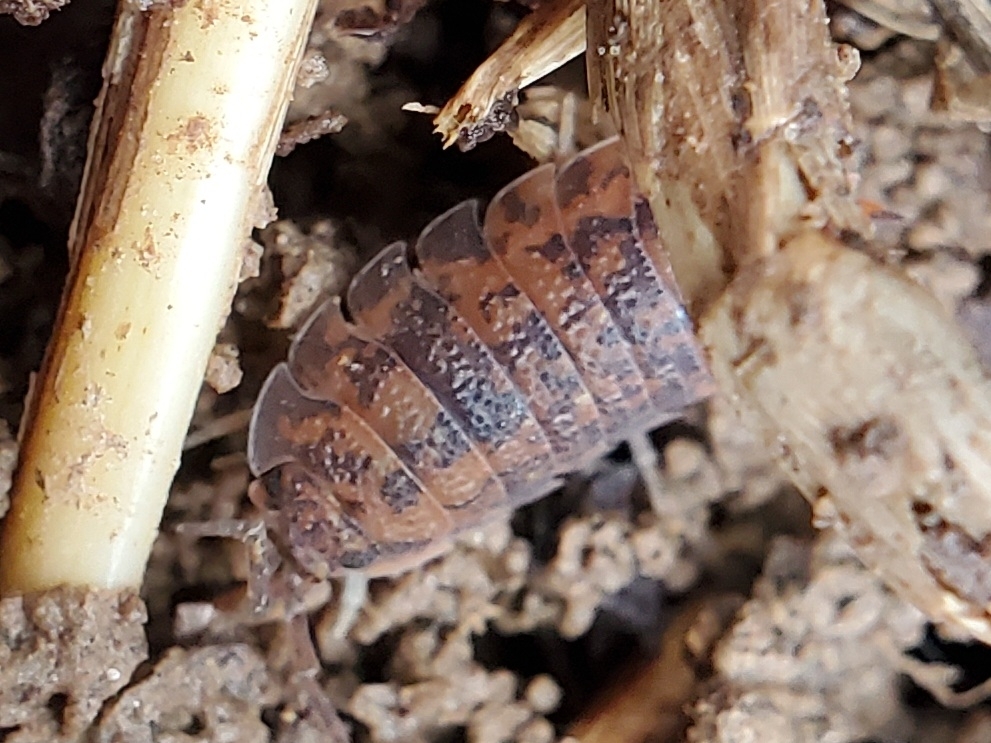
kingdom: Animalia
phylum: Arthropoda
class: Malacostraca
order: Isopoda
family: Porcellionidae
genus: Porcellio
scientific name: Porcellio scaber
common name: Common rough woodlouse
